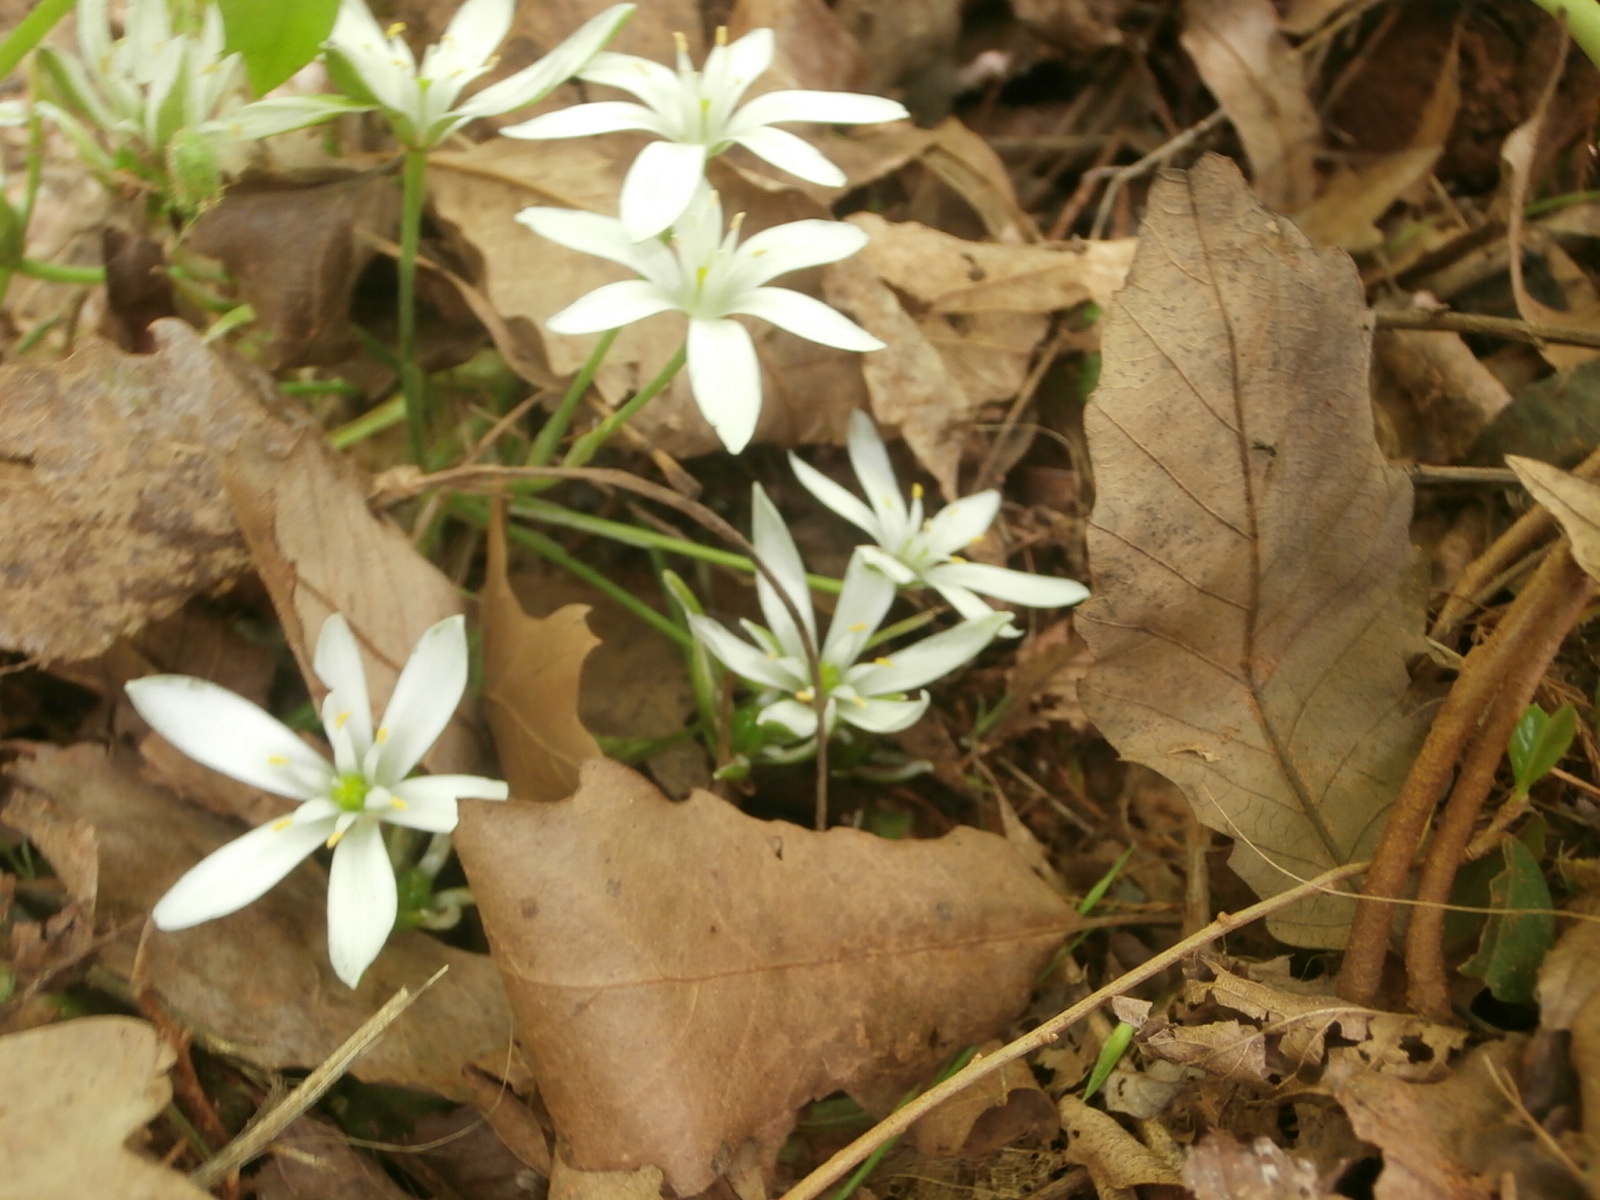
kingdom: Plantae
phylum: Tracheophyta
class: Liliopsida
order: Asparagales
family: Asparagaceae
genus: Ornithogalum
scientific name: Ornithogalum umbellatum
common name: Garden star-of-bethlehem
